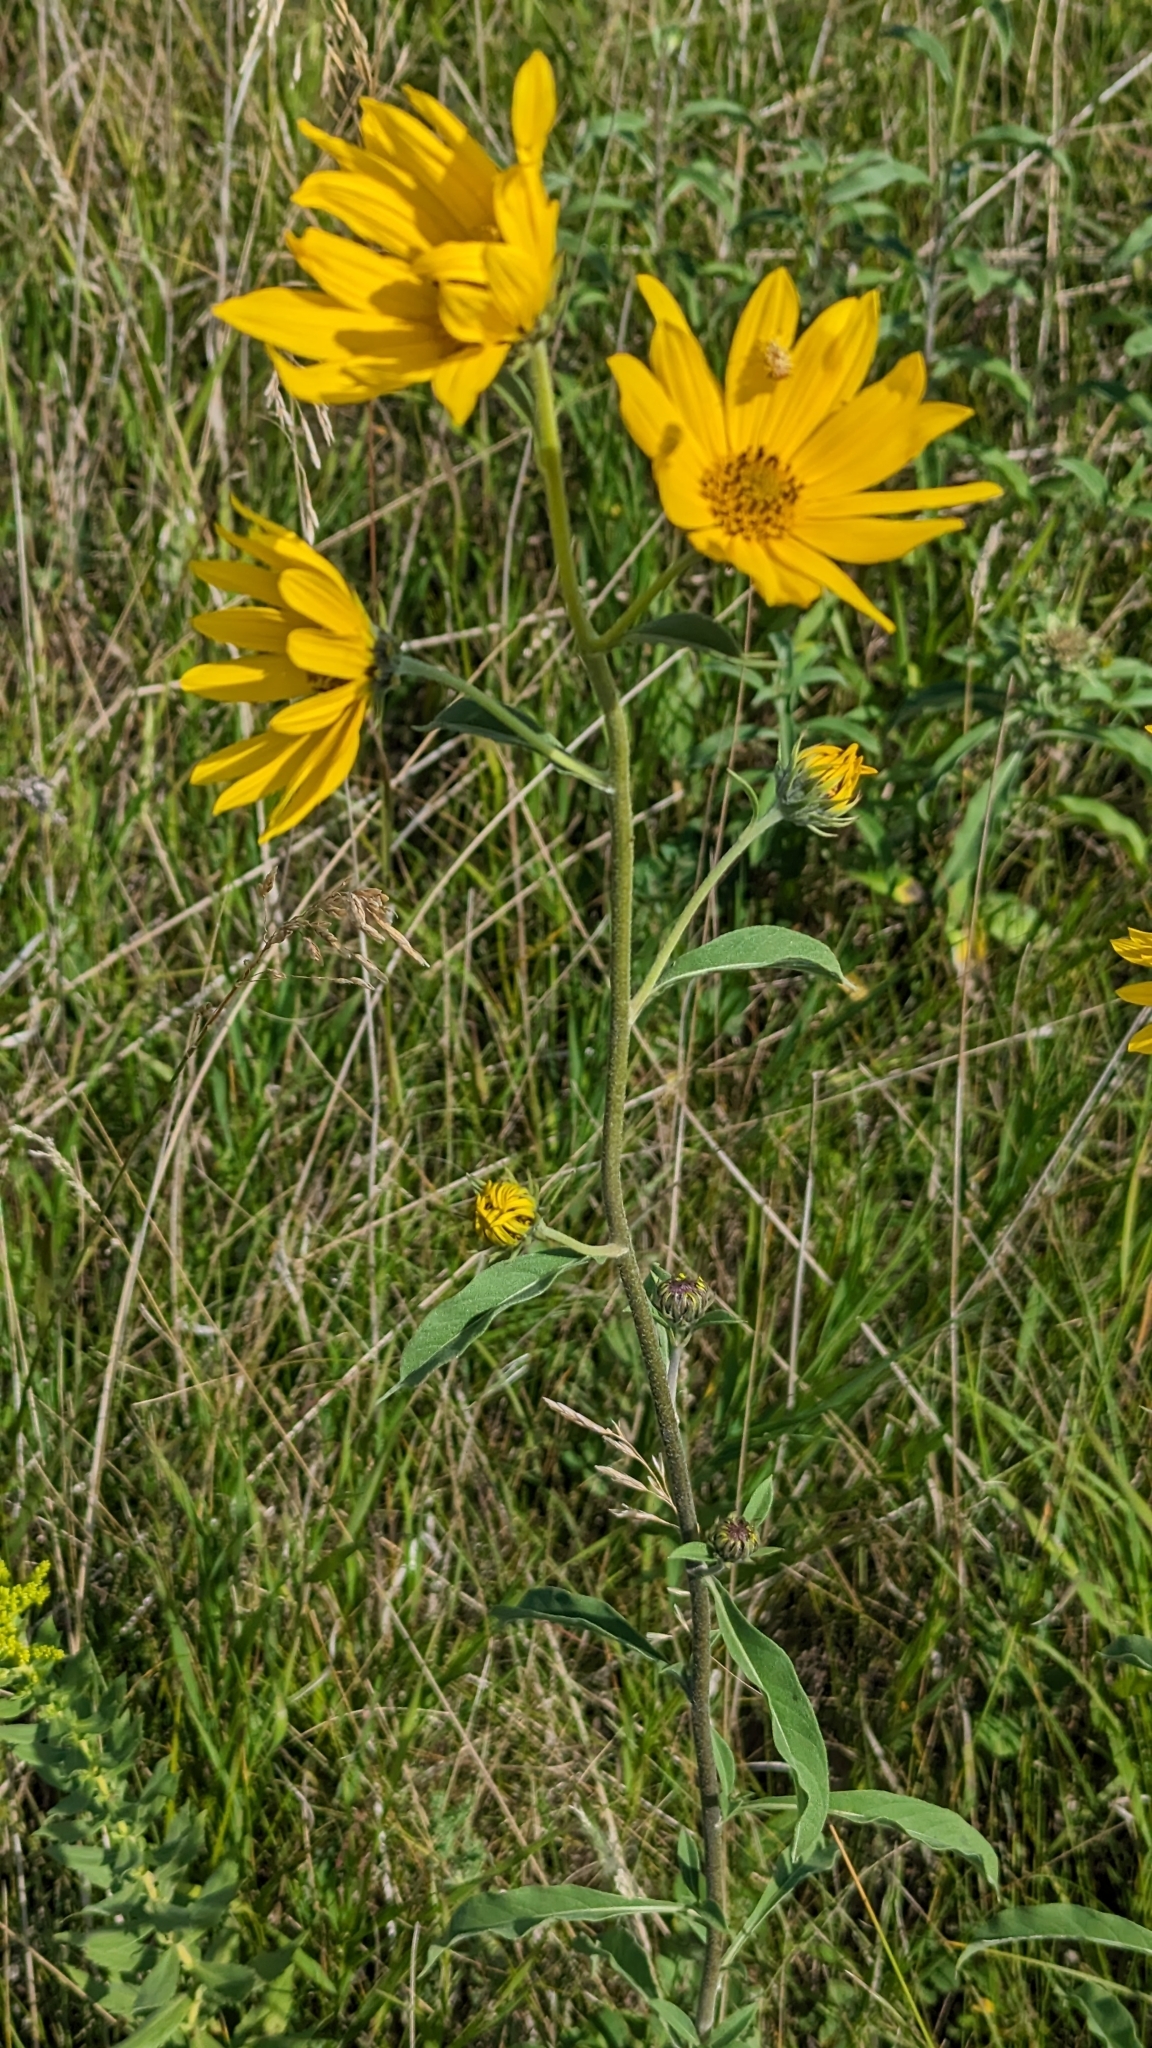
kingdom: Plantae
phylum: Tracheophyta
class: Magnoliopsida
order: Asterales
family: Asteraceae
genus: Helianthus
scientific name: Helianthus maximiliani
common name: Maximilian's sunflower
